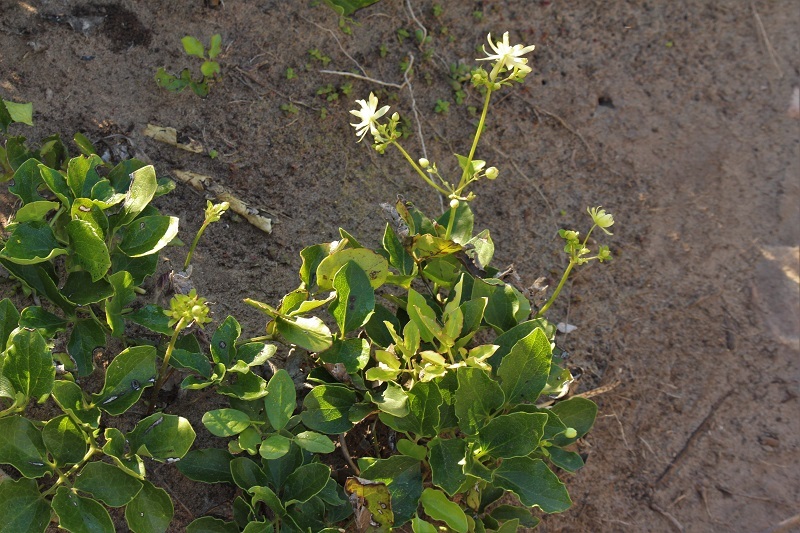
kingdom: Plantae
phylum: Tracheophyta
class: Magnoliopsida
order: Ranunculales
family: Ranunculaceae
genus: Knowltonia
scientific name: Knowltonia vesicatoria
